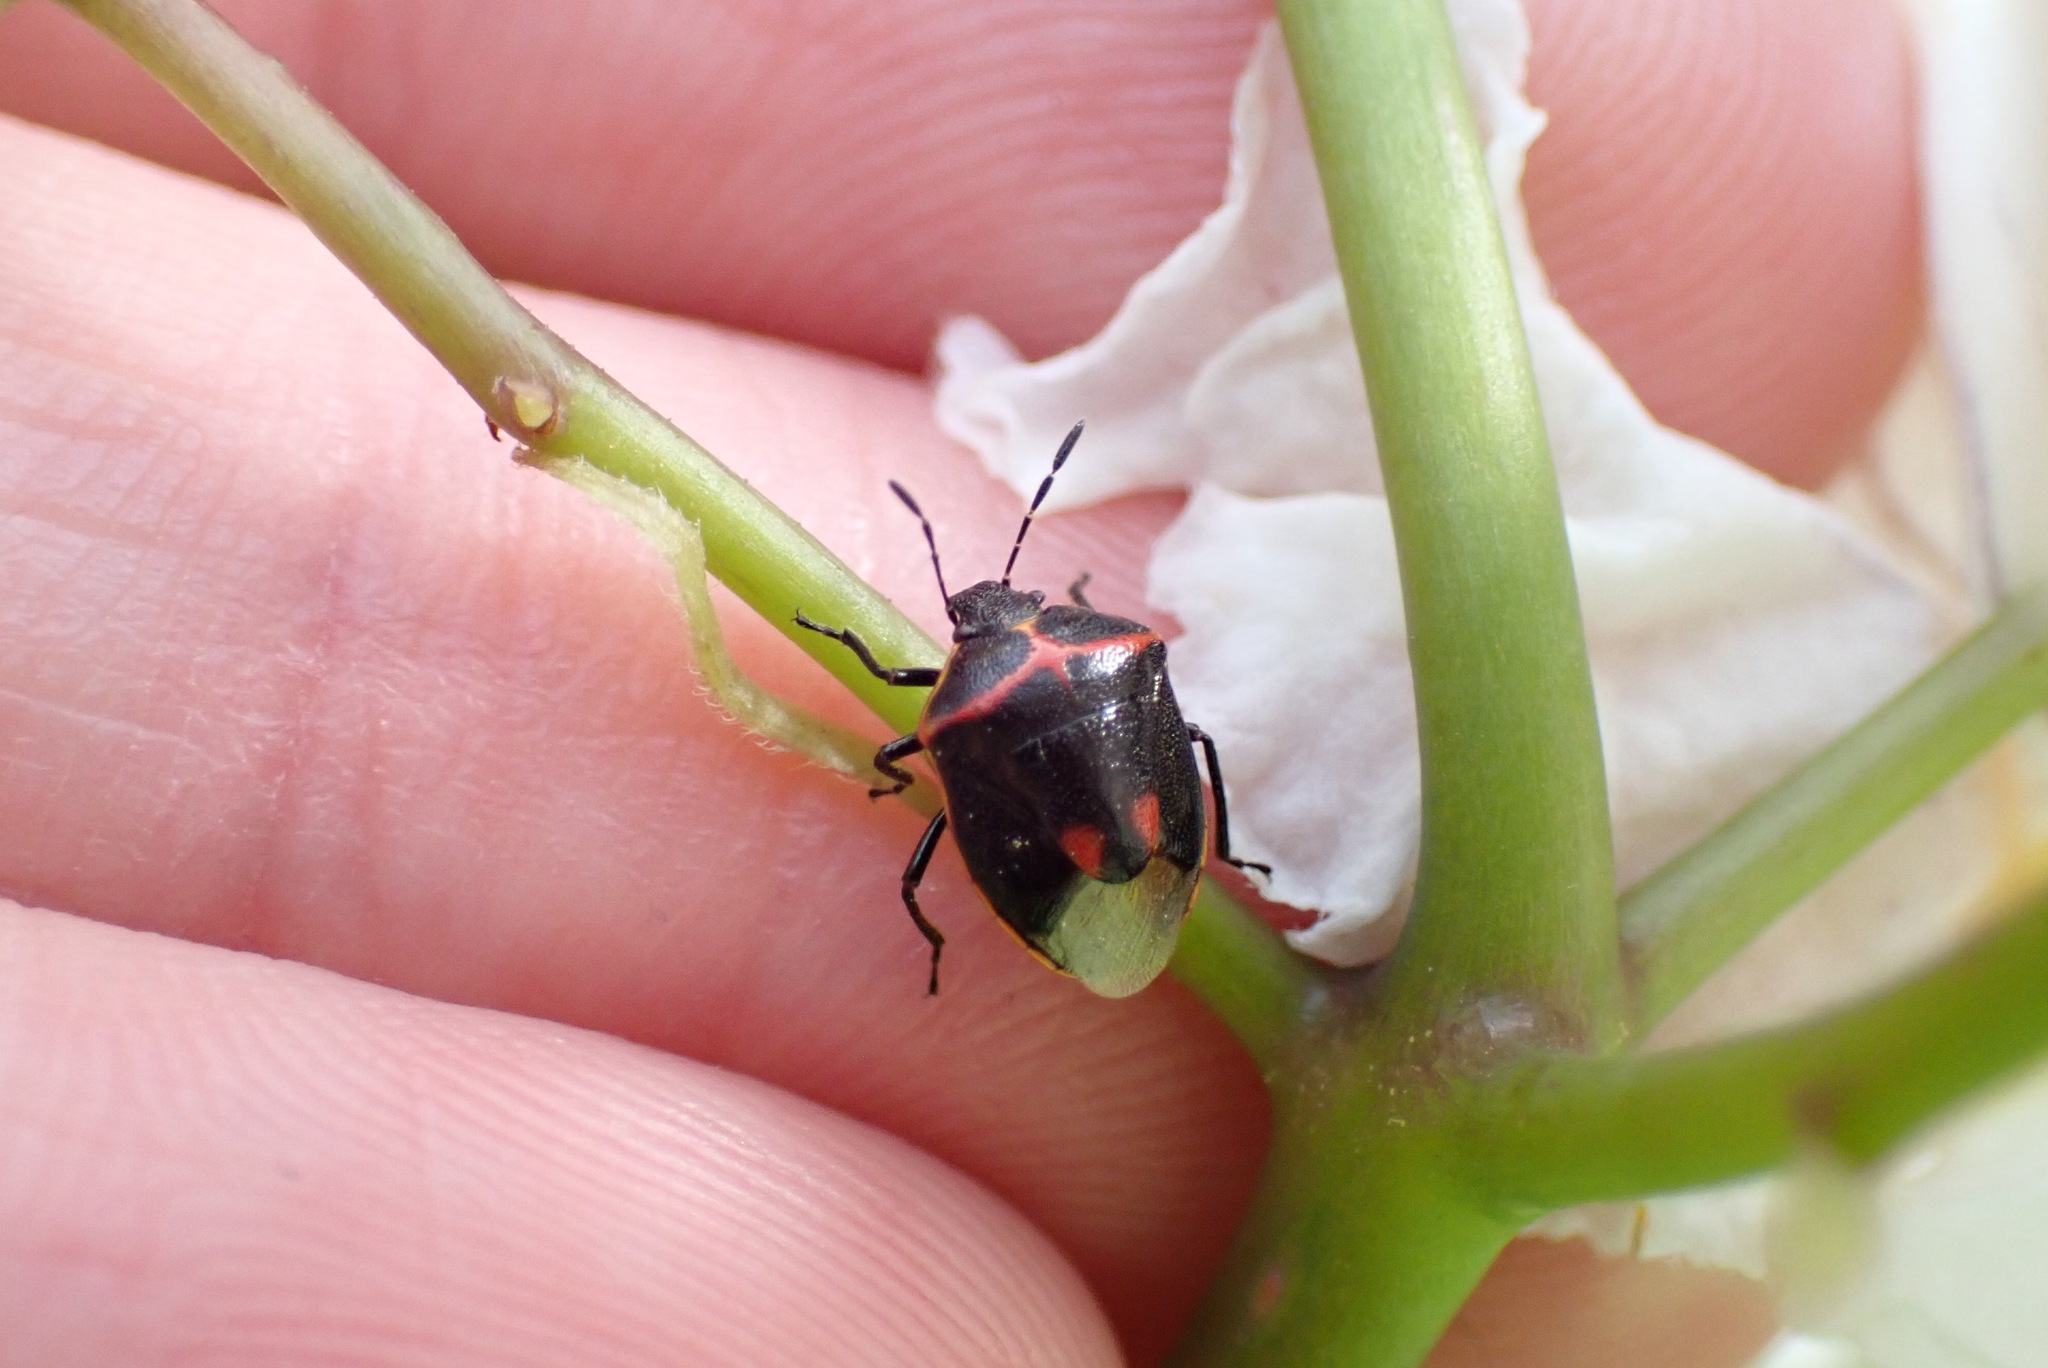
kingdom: Animalia
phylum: Arthropoda
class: Insecta
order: Hemiptera
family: Pentatomidae
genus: Cosmopepla
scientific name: Cosmopepla lintneriana
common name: Twice-stabbed stink bug
